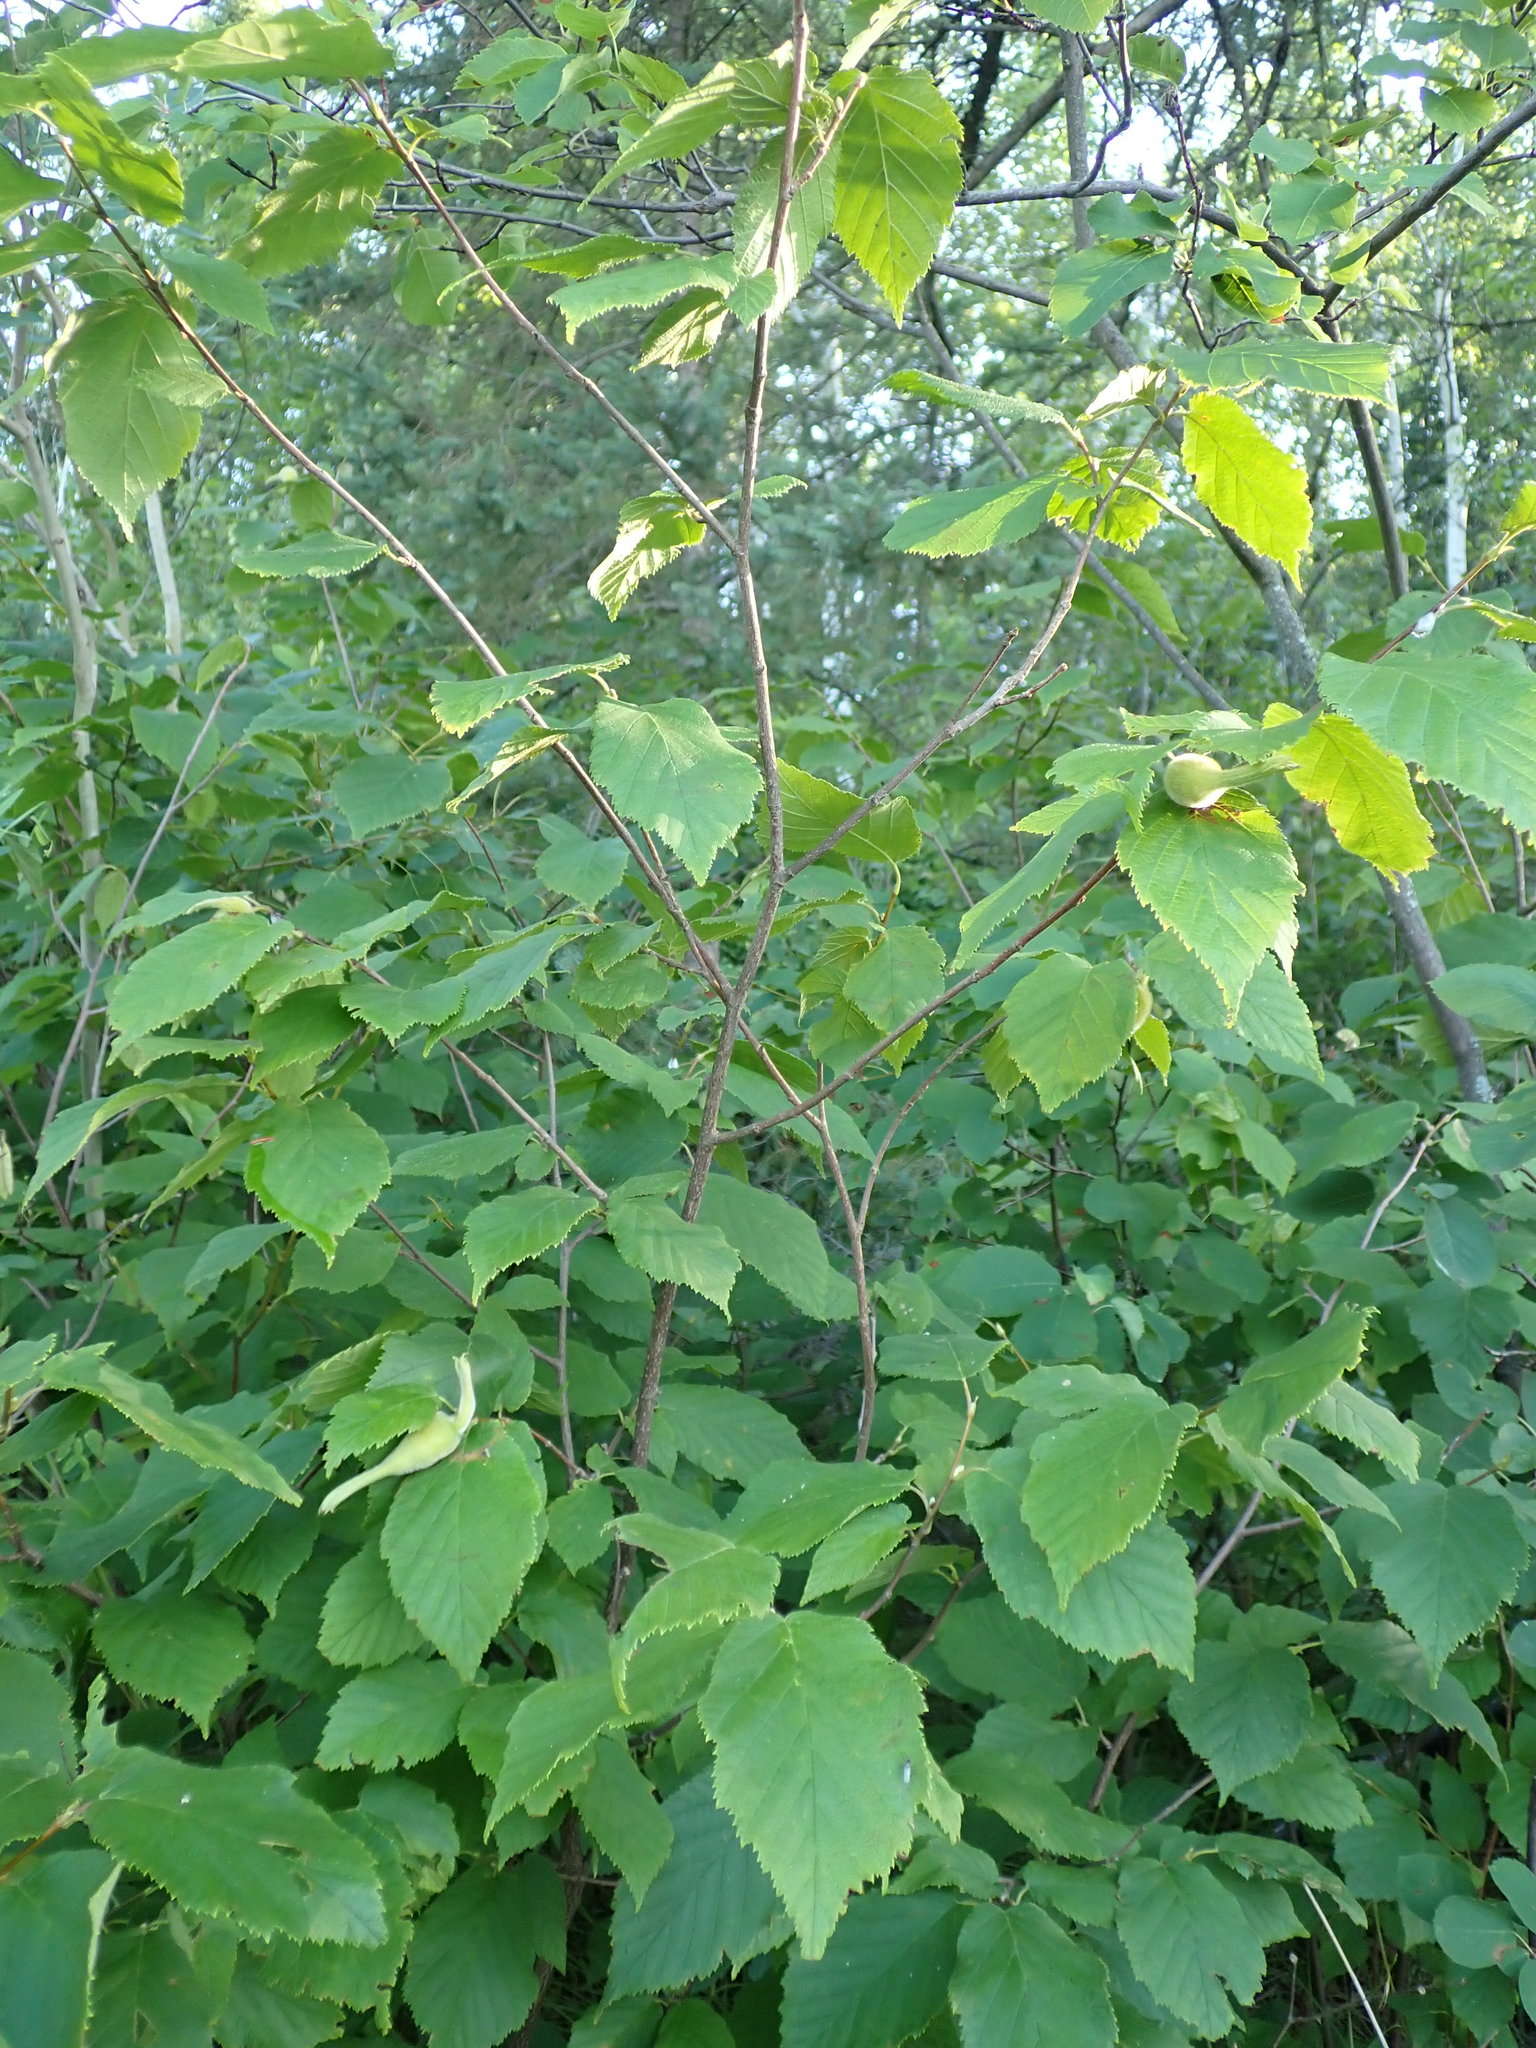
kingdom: Plantae
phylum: Tracheophyta
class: Magnoliopsida
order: Fagales
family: Betulaceae
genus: Corylus
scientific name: Corylus cornuta
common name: Beaked hazel
